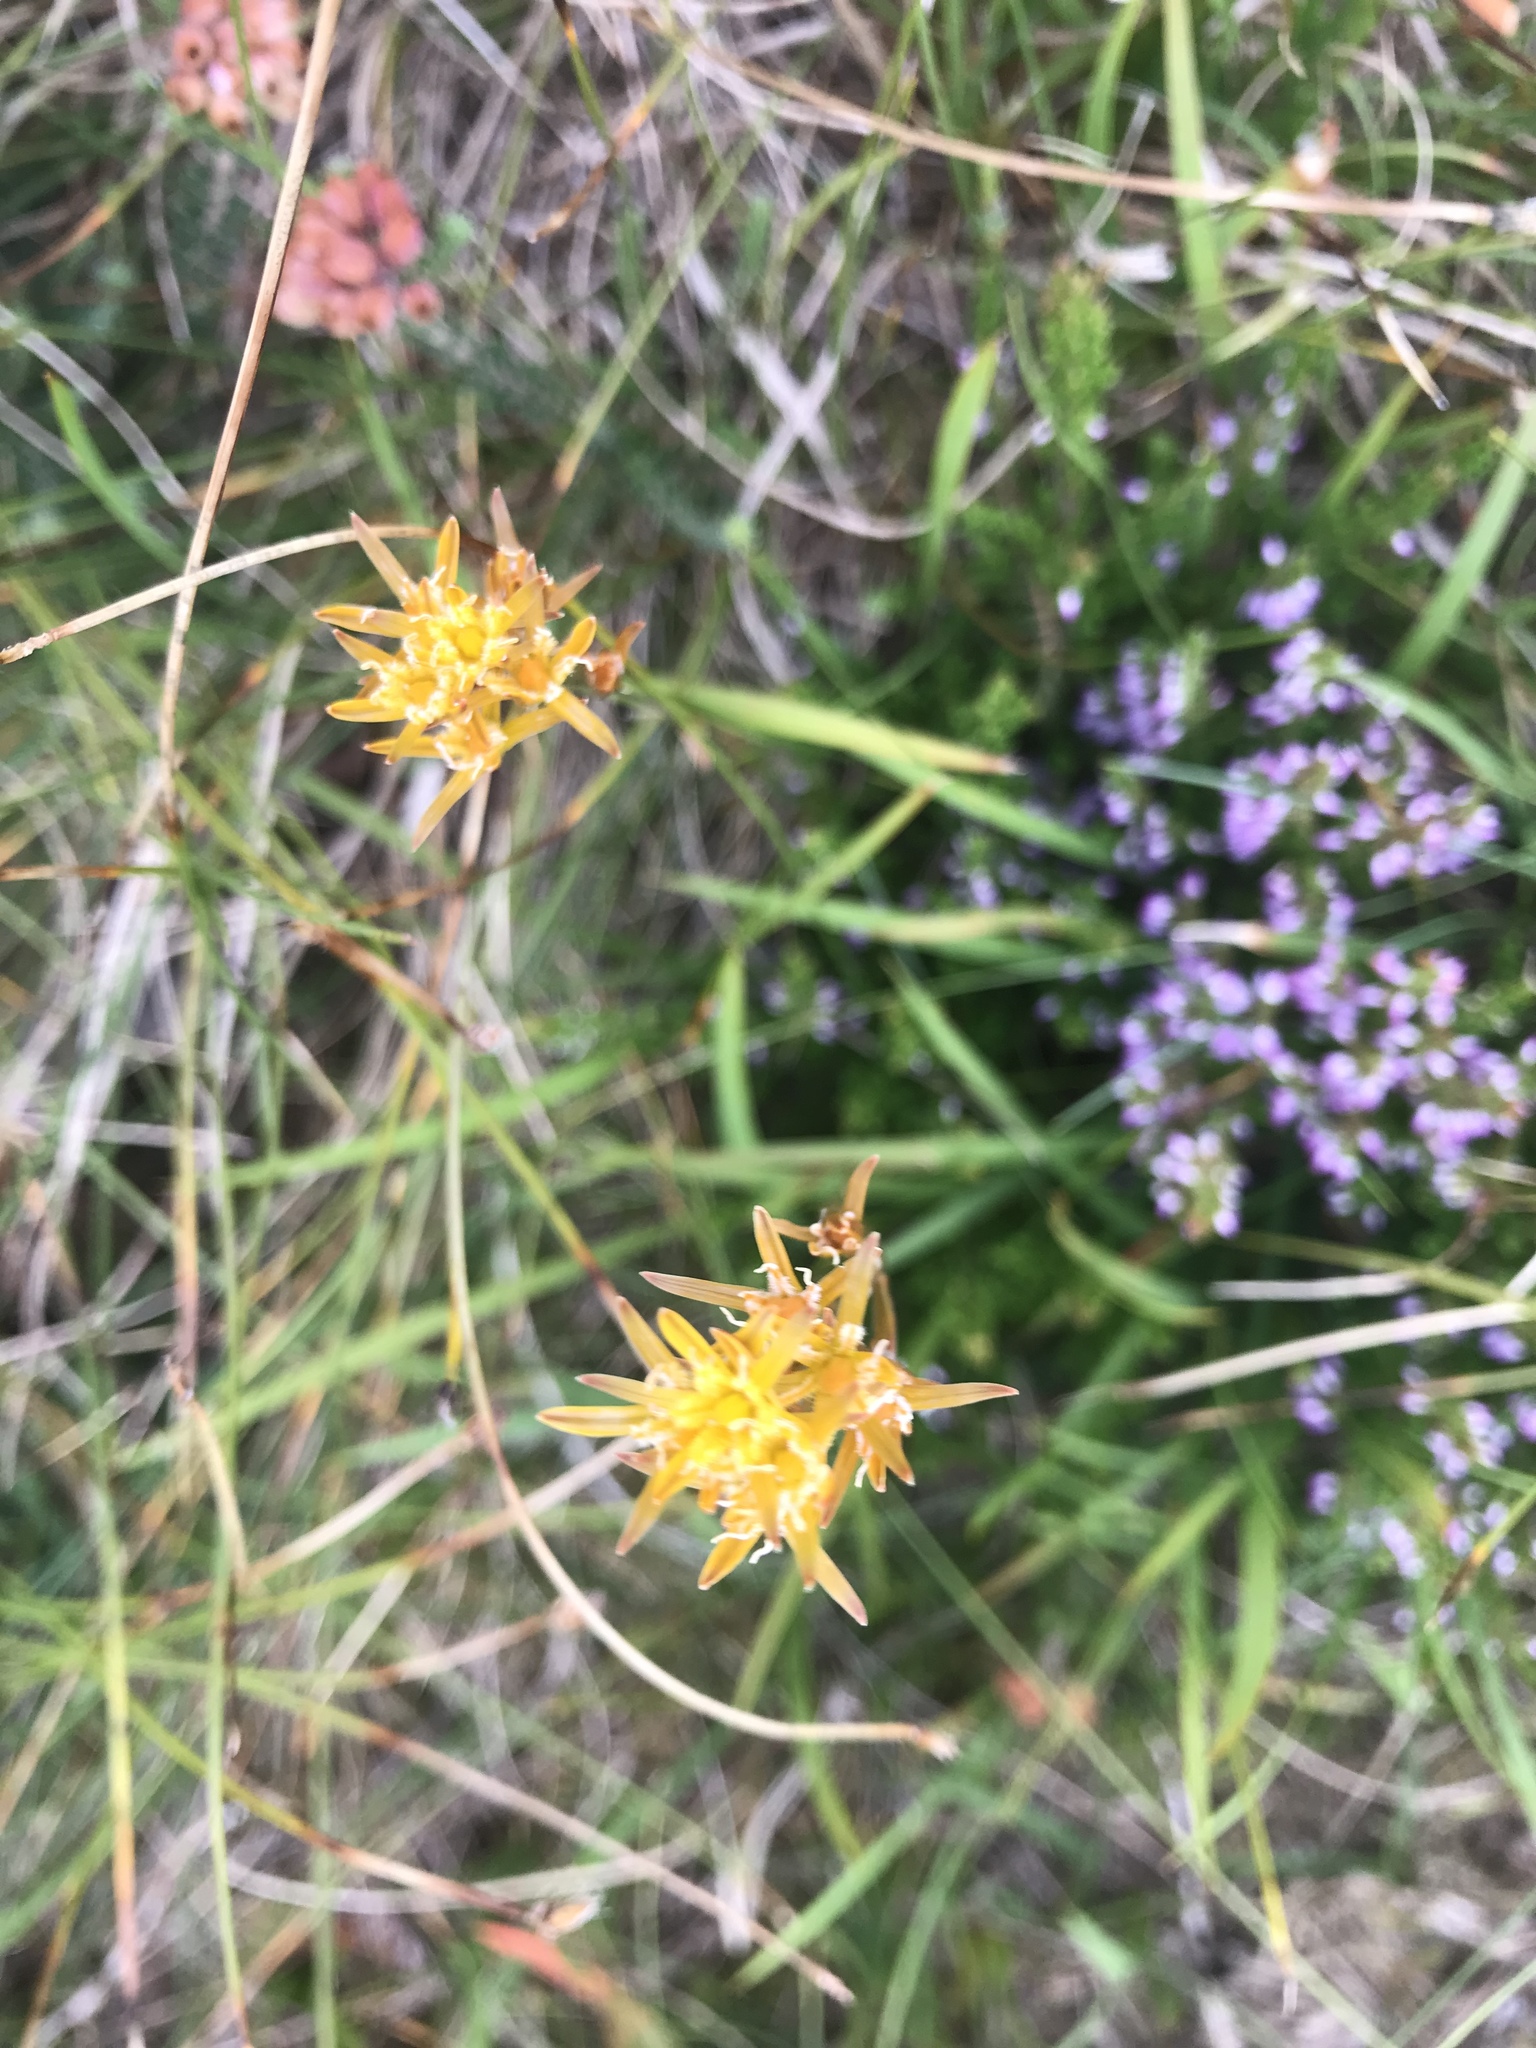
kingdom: Plantae
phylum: Tracheophyta
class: Liliopsida
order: Dioscoreales
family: Nartheciaceae
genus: Narthecium
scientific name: Narthecium ossifragum
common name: Bog asphodel
